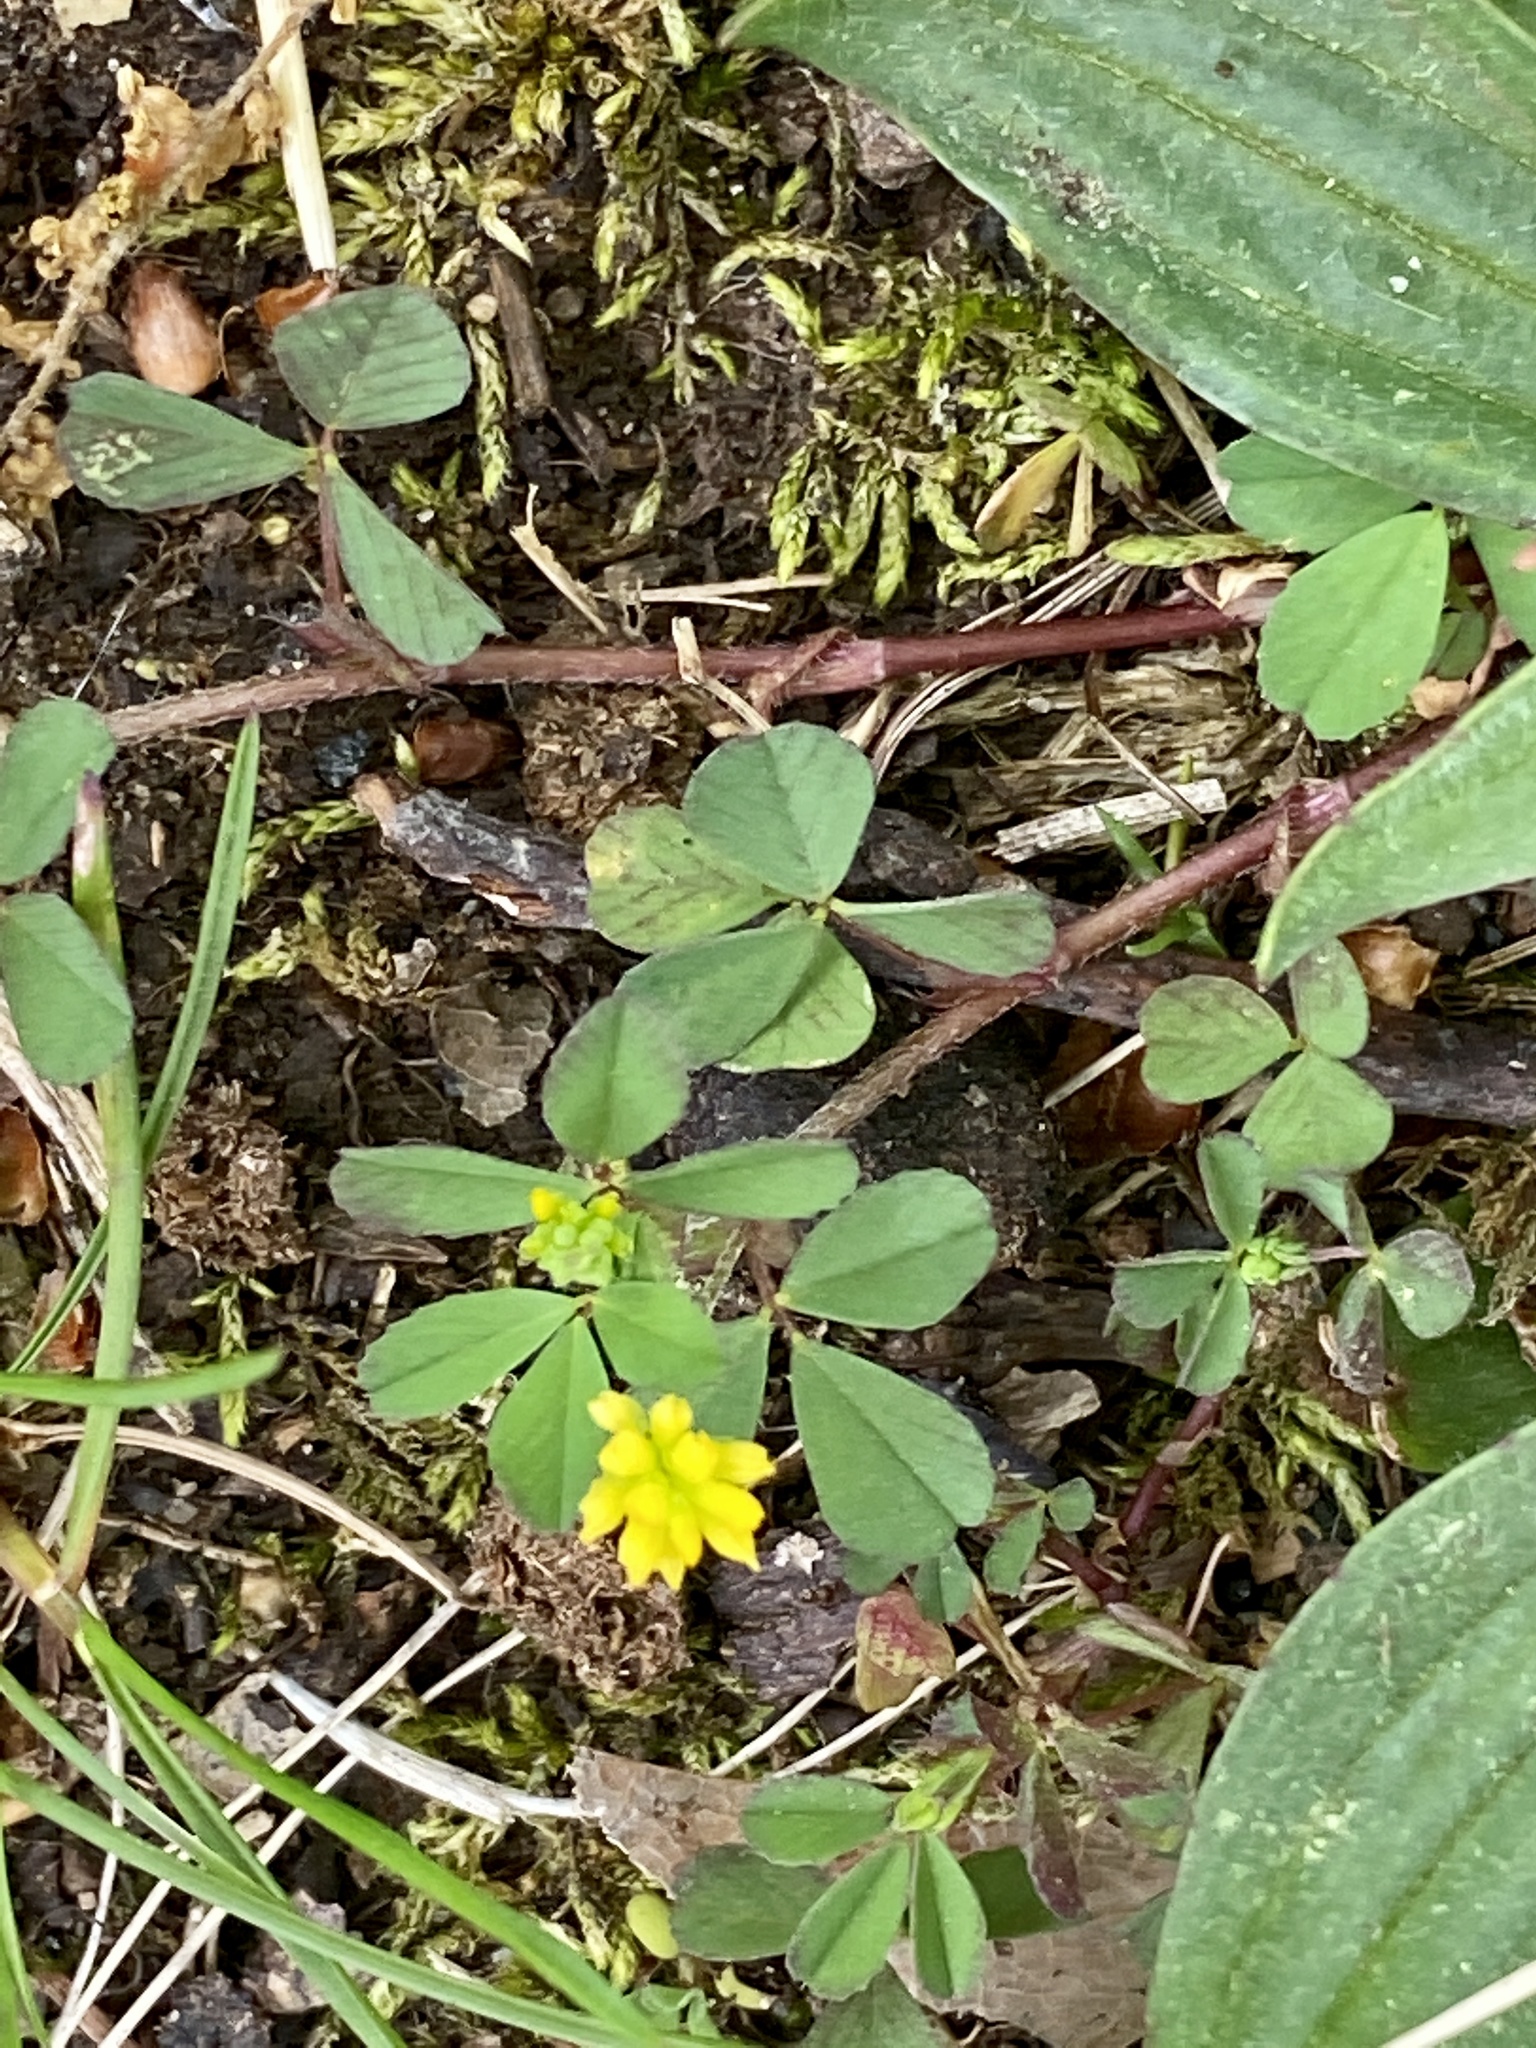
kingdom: Plantae
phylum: Tracheophyta
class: Magnoliopsida
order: Fabales
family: Fabaceae
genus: Trifolium
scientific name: Trifolium dubium
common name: Suckling clover
